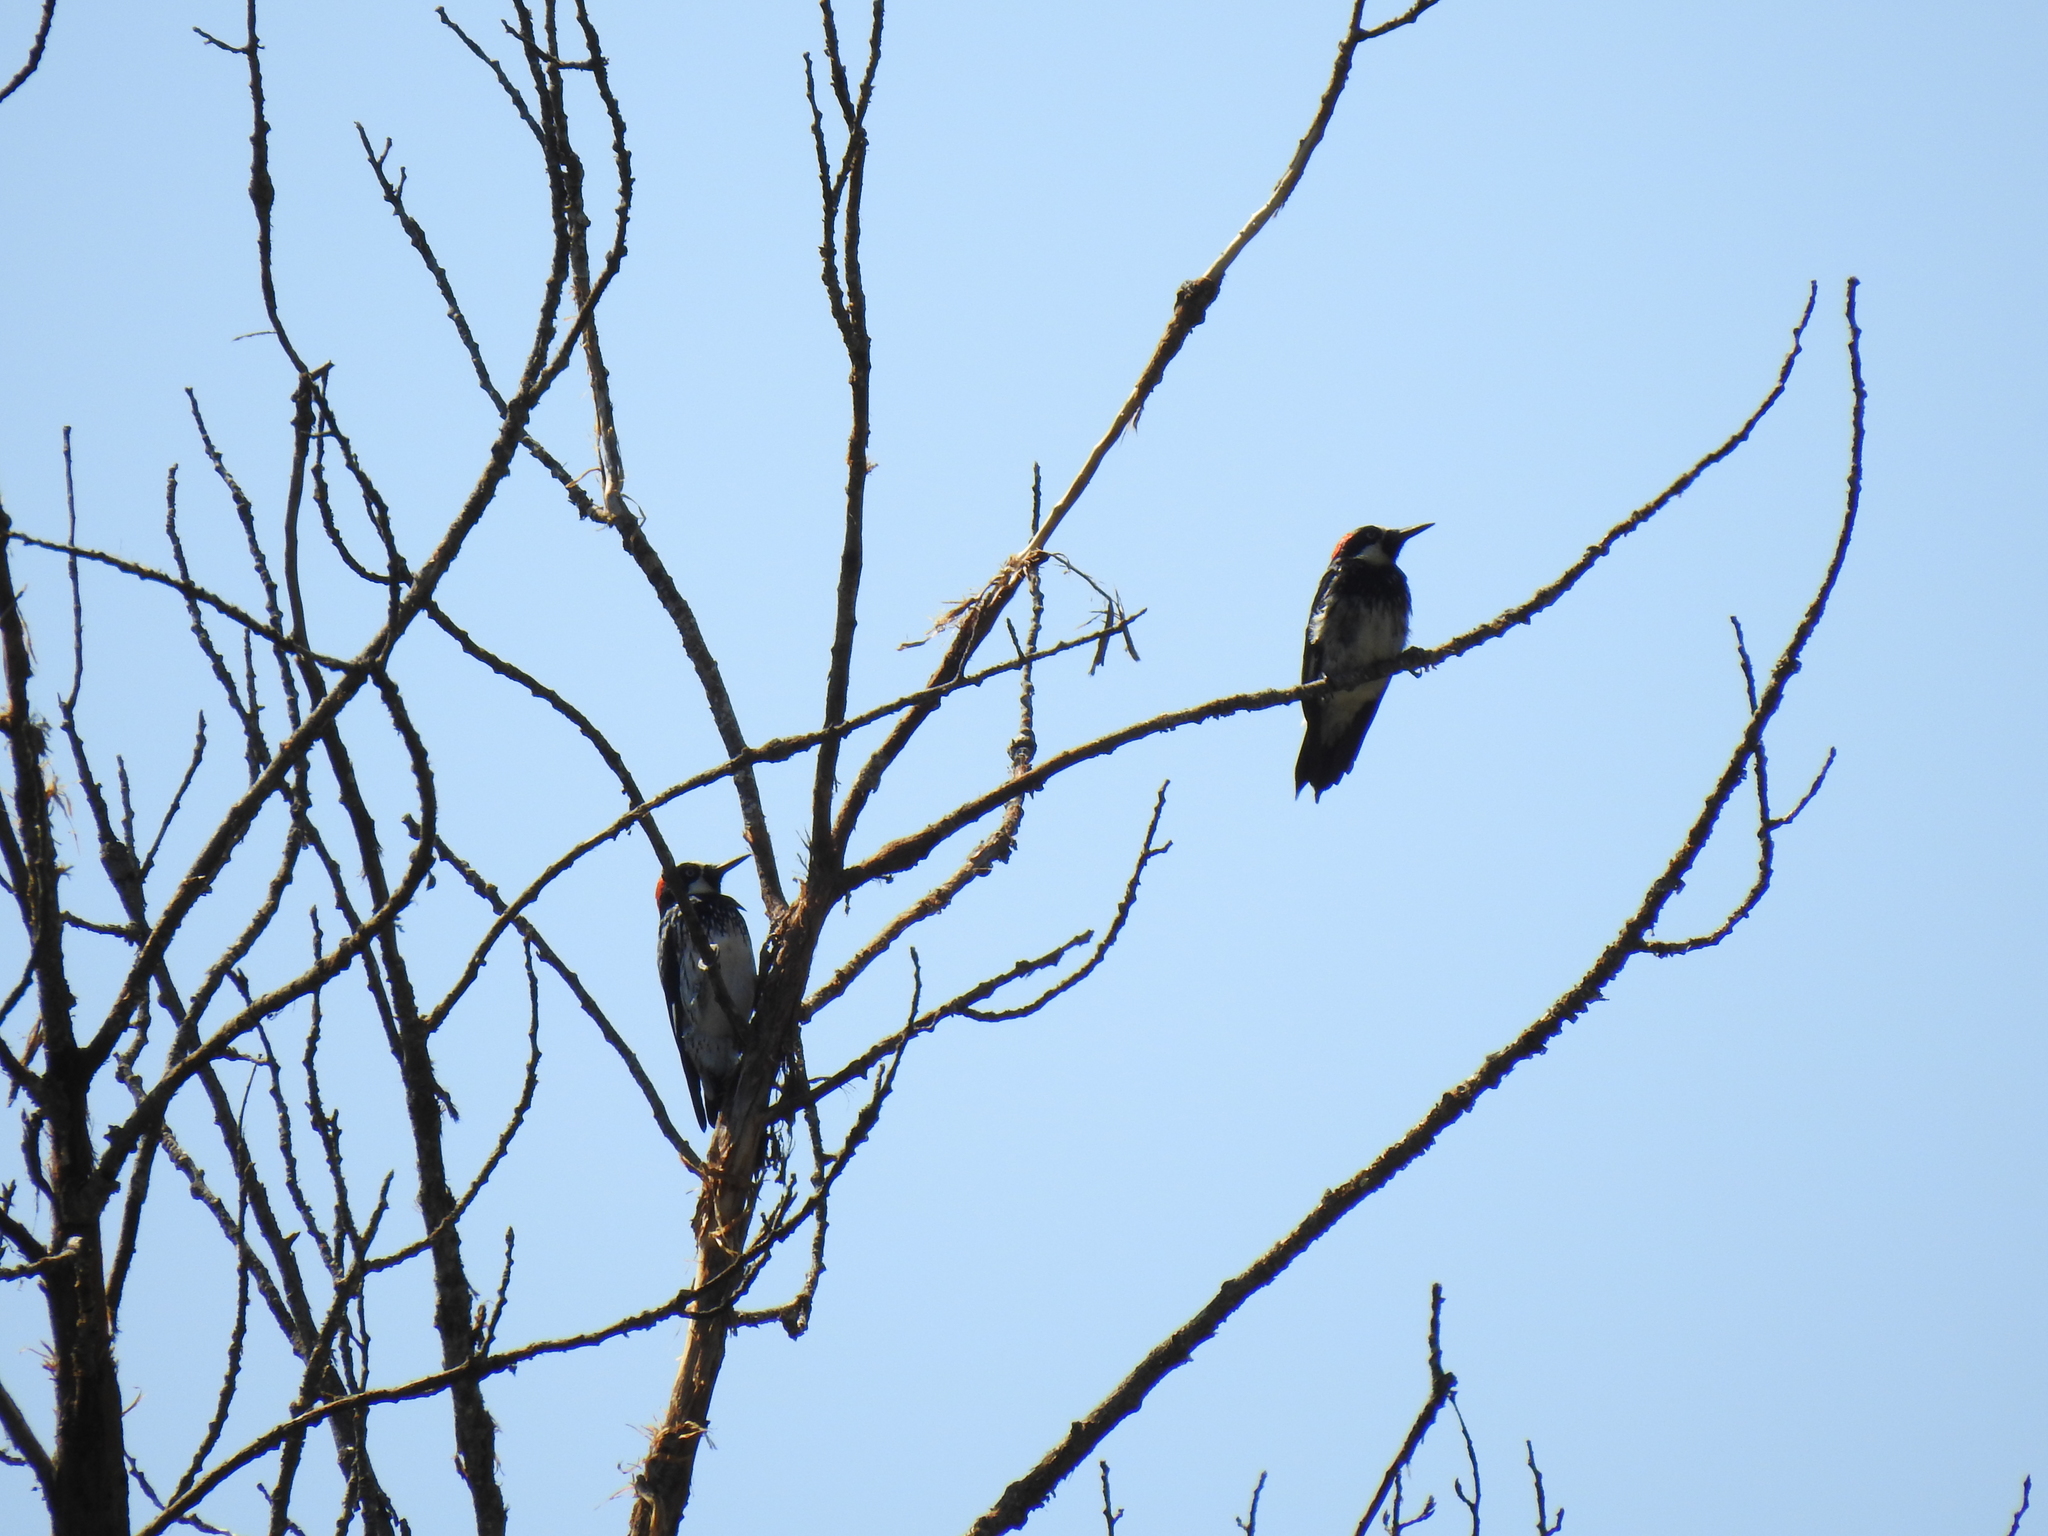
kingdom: Animalia
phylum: Chordata
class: Aves
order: Piciformes
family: Picidae
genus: Melanerpes
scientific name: Melanerpes formicivorus
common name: Acorn woodpecker
